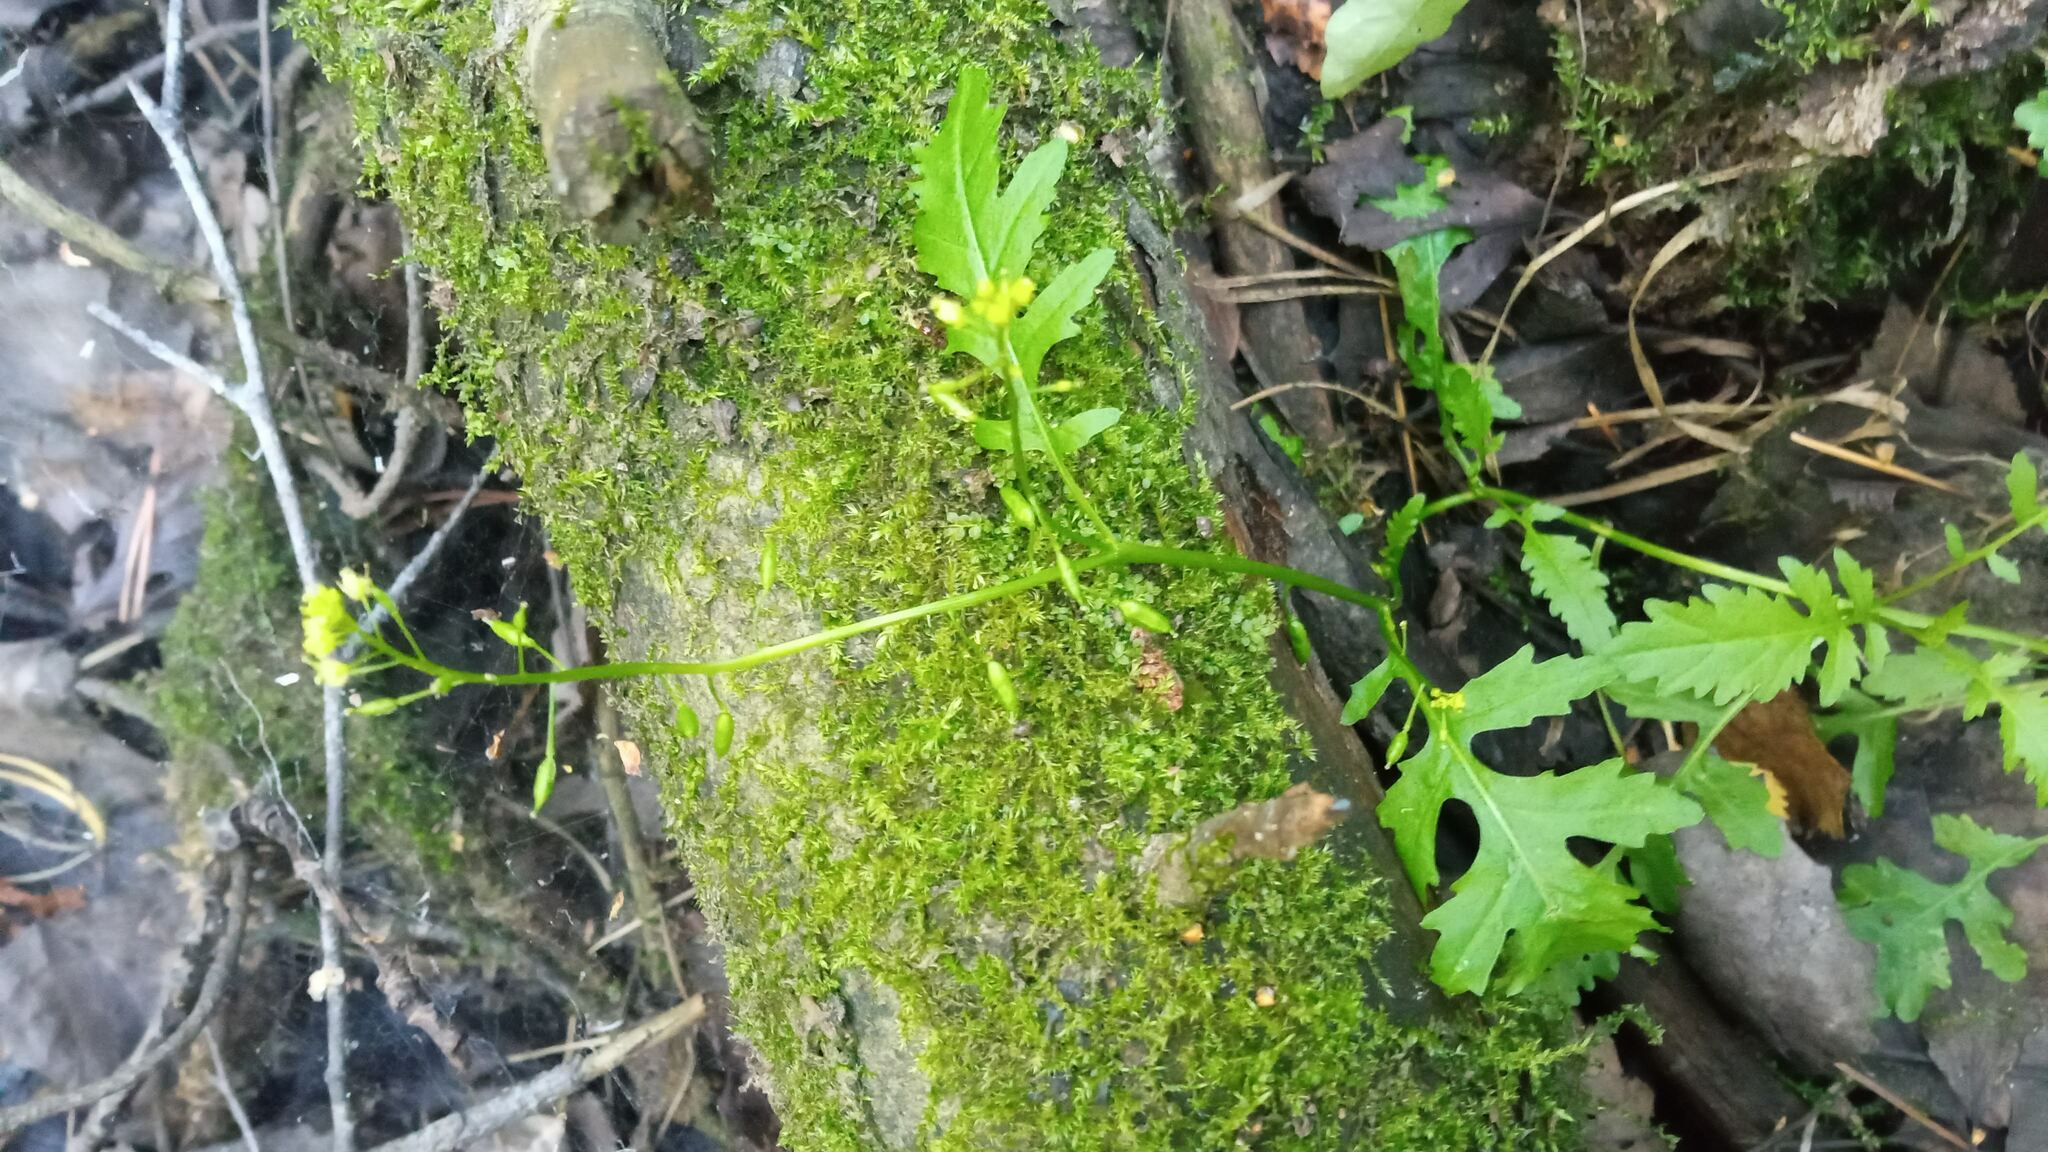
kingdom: Plantae
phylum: Tracheophyta
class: Magnoliopsida
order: Brassicales
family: Brassicaceae
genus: Rorippa
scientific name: Rorippa palustris
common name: Marsh yellow-cress
